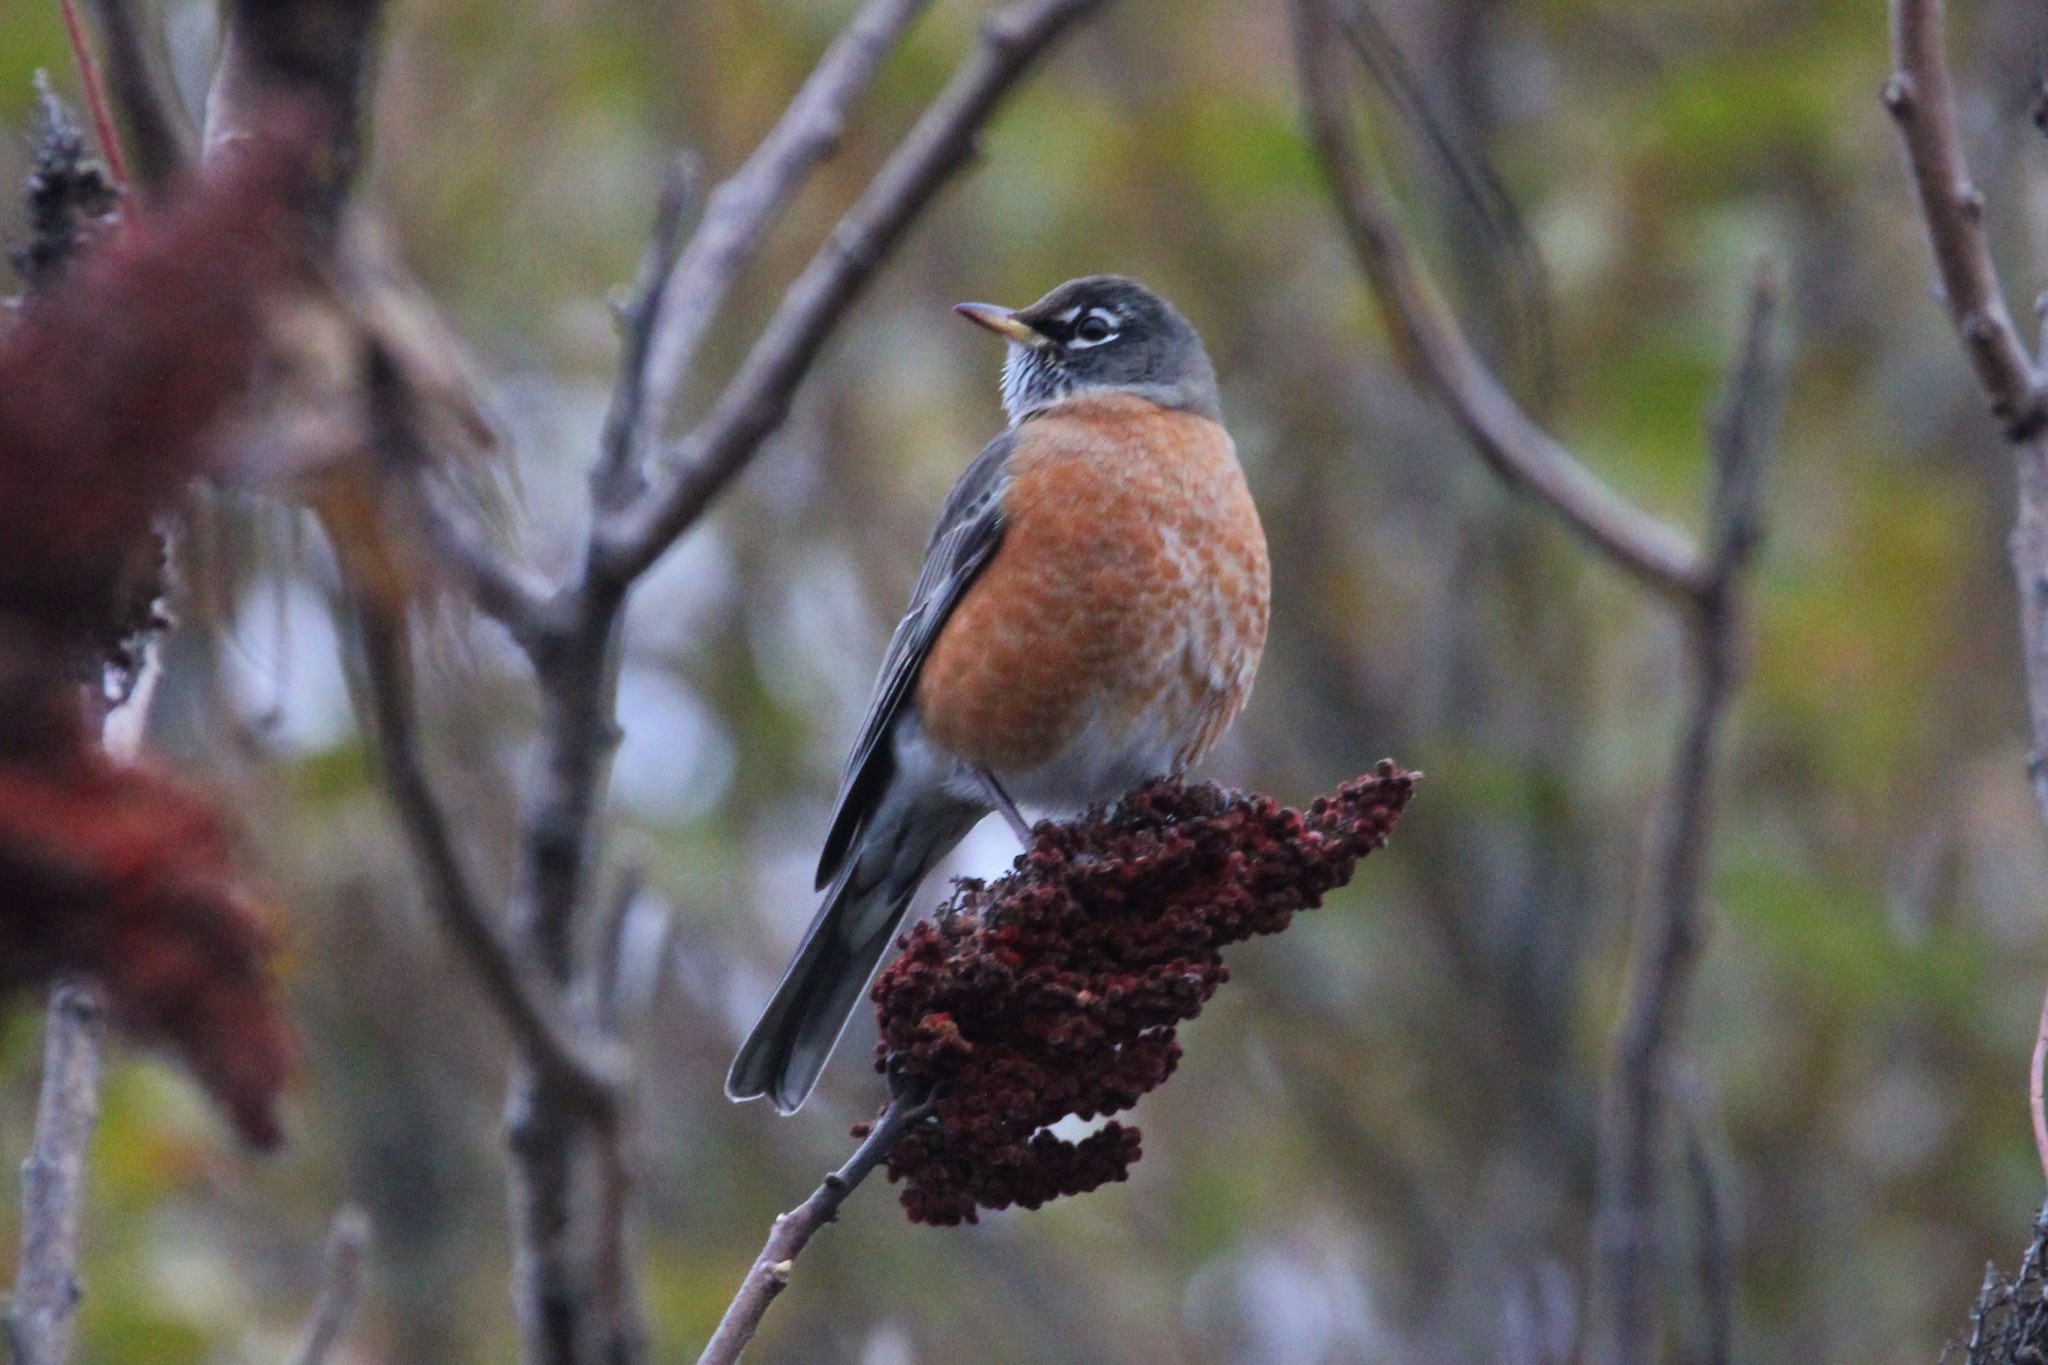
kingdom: Animalia
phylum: Chordata
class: Aves
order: Passeriformes
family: Turdidae
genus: Turdus
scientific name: Turdus migratorius
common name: American robin
